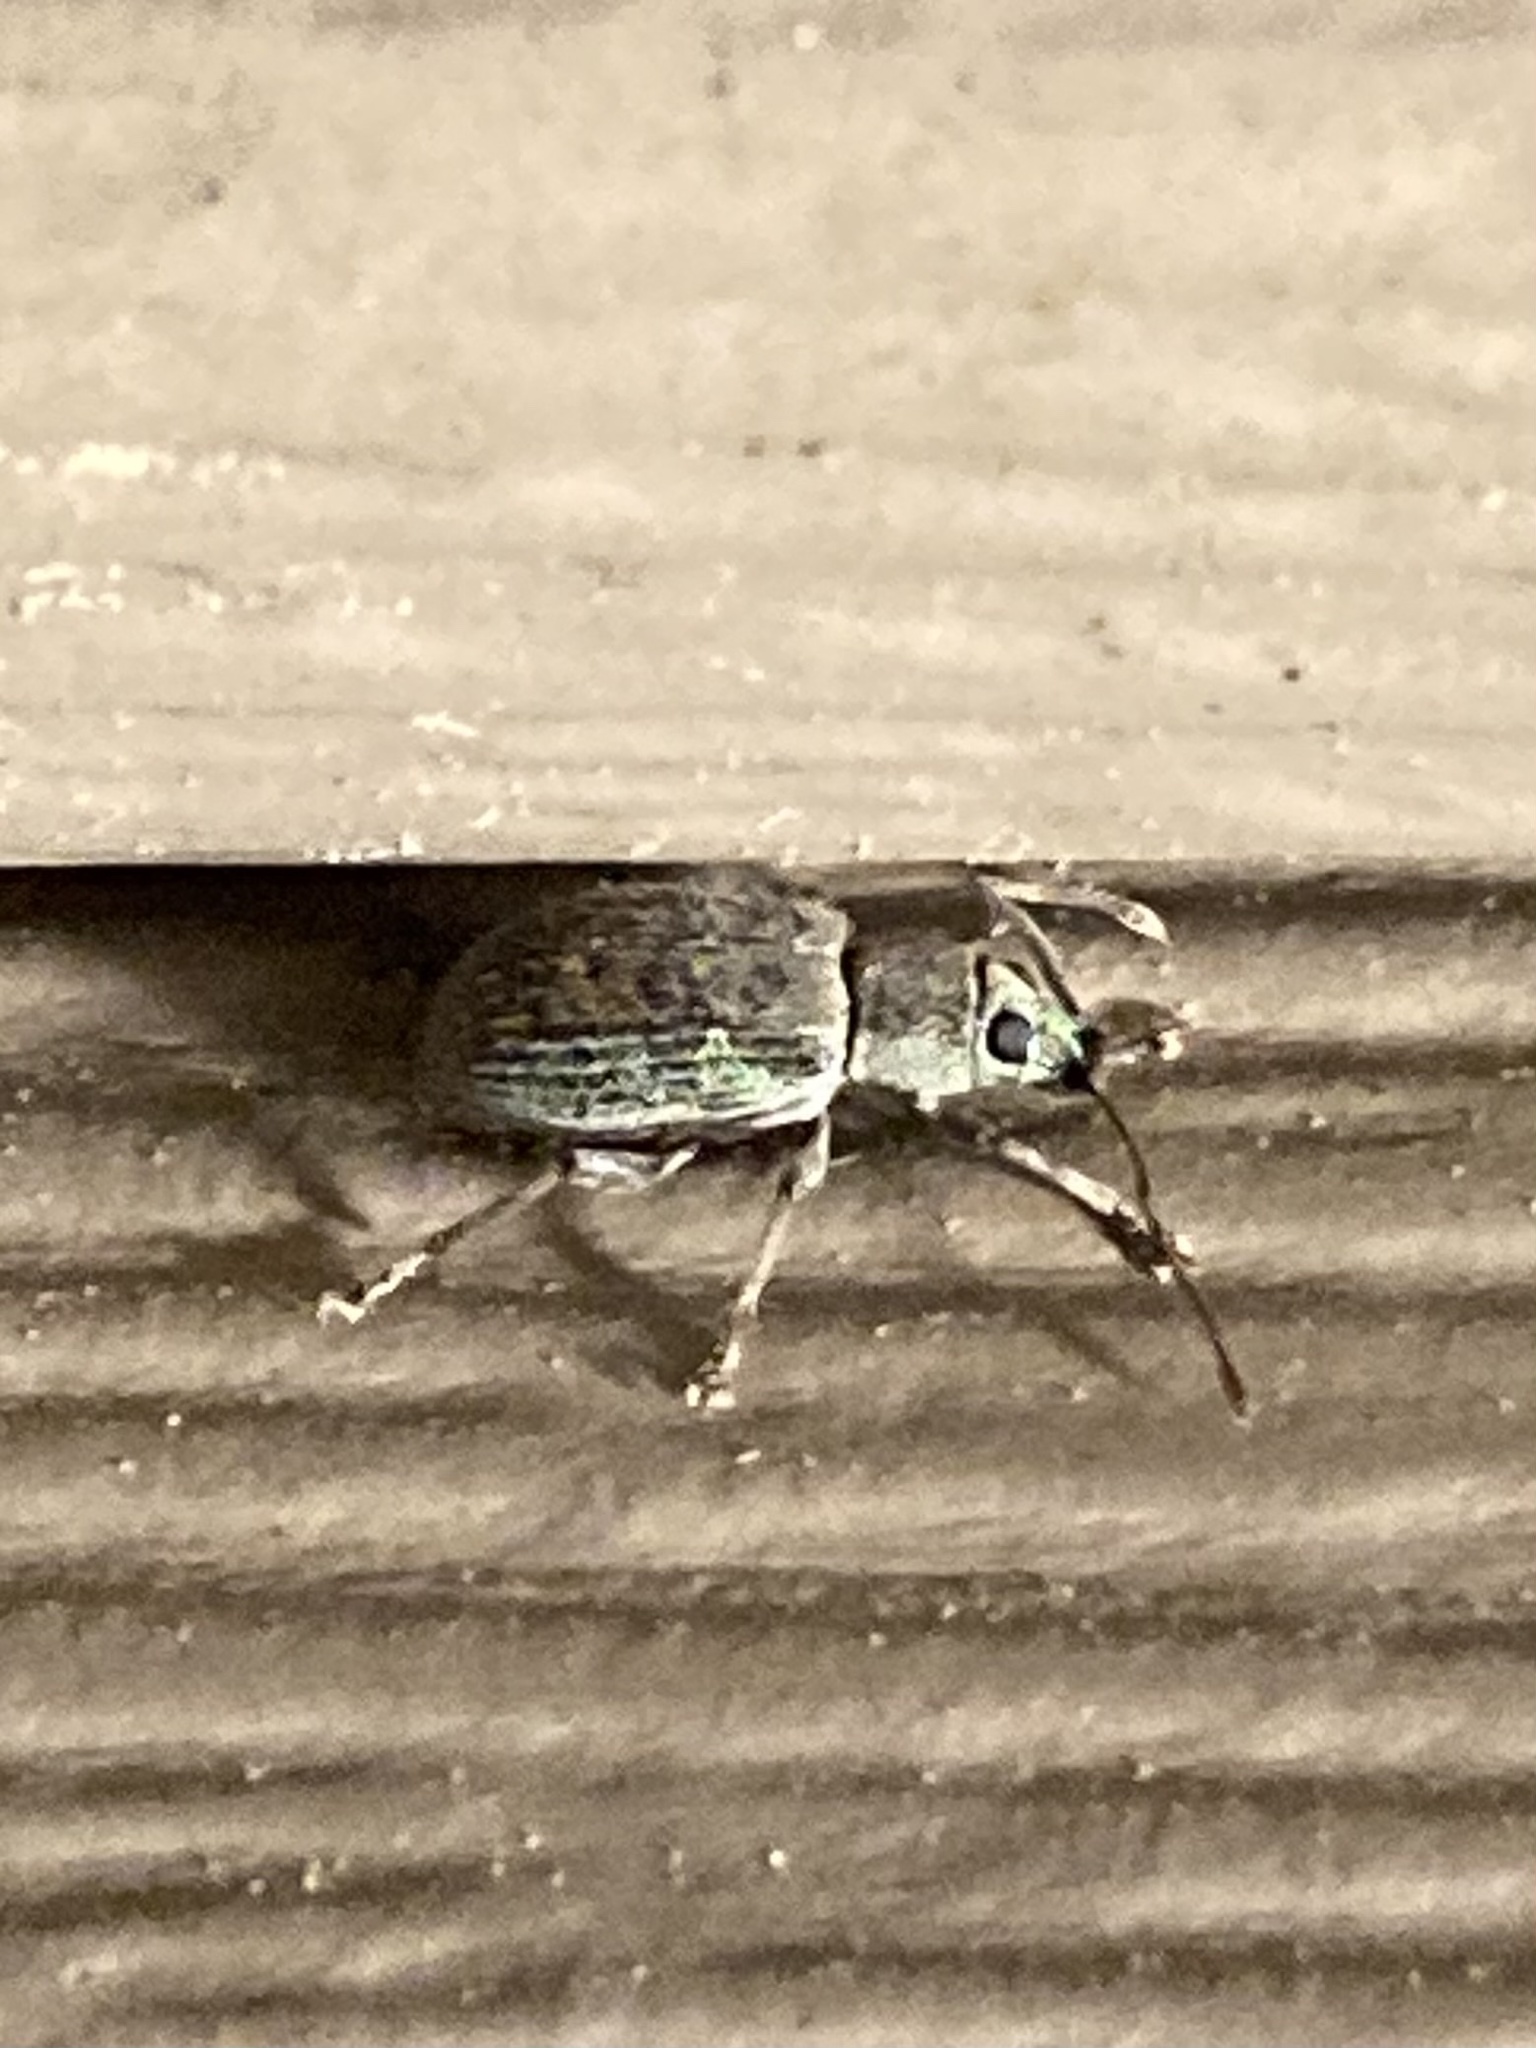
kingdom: Animalia
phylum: Arthropoda
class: Insecta
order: Coleoptera
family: Curculionidae
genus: Cyrtepistomus
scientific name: Cyrtepistomus castaneus
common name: Weevil
